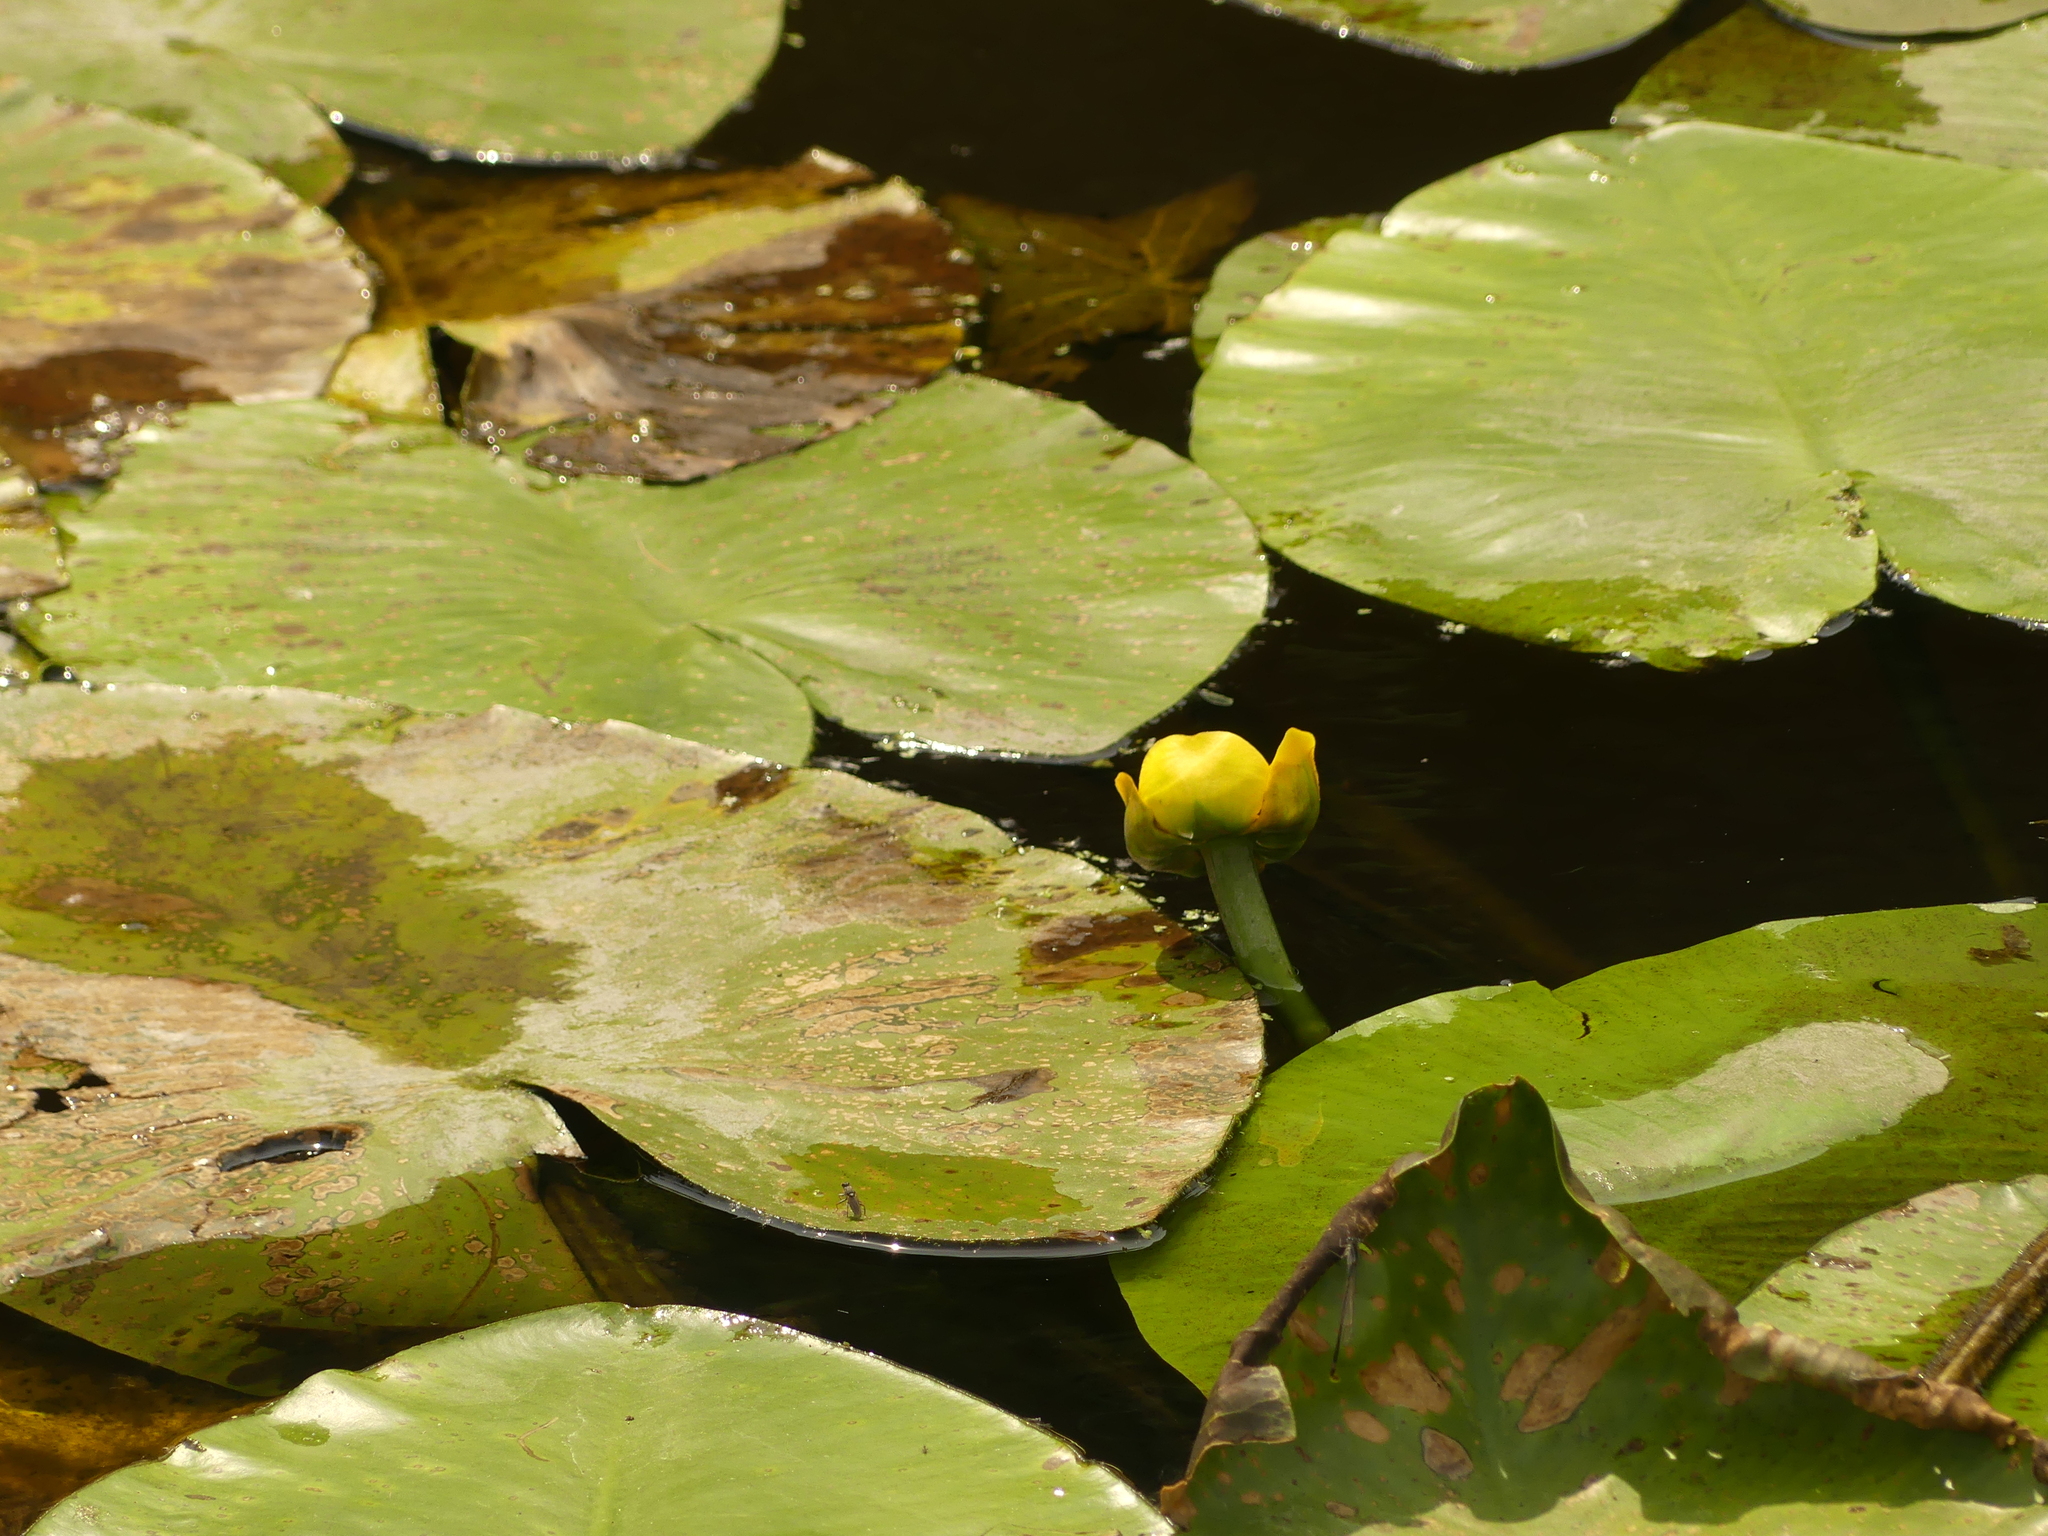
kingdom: Plantae
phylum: Tracheophyta
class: Magnoliopsida
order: Nymphaeales
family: Nymphaeaceae
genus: Nuphar
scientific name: Nuphar lutea
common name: Yellow water-lily
